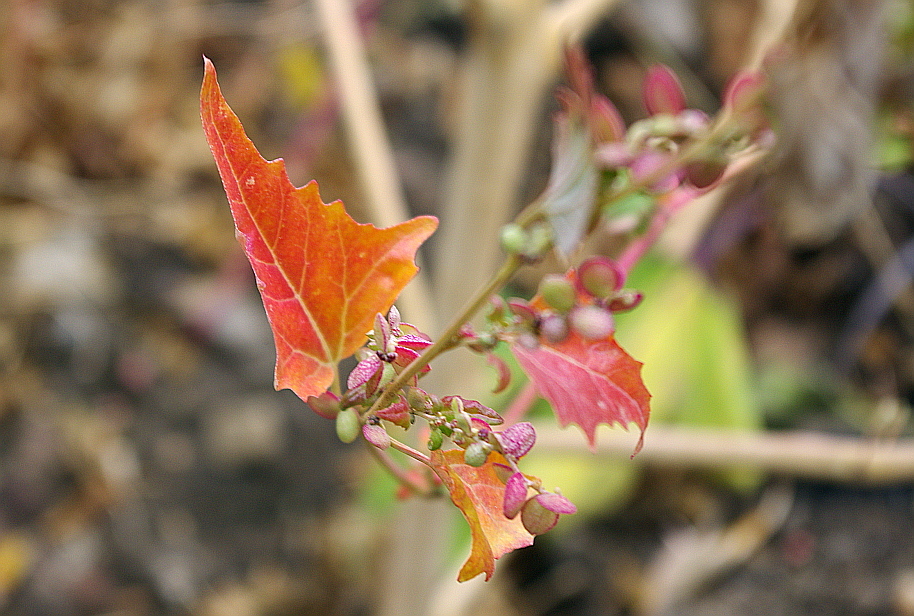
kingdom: Plantae
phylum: Tracheophyta
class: Magnoliopsida
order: Caryophyllales
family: Amaranthaceae
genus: Atriplex
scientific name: Atriplex sagittata
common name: Purple orache
